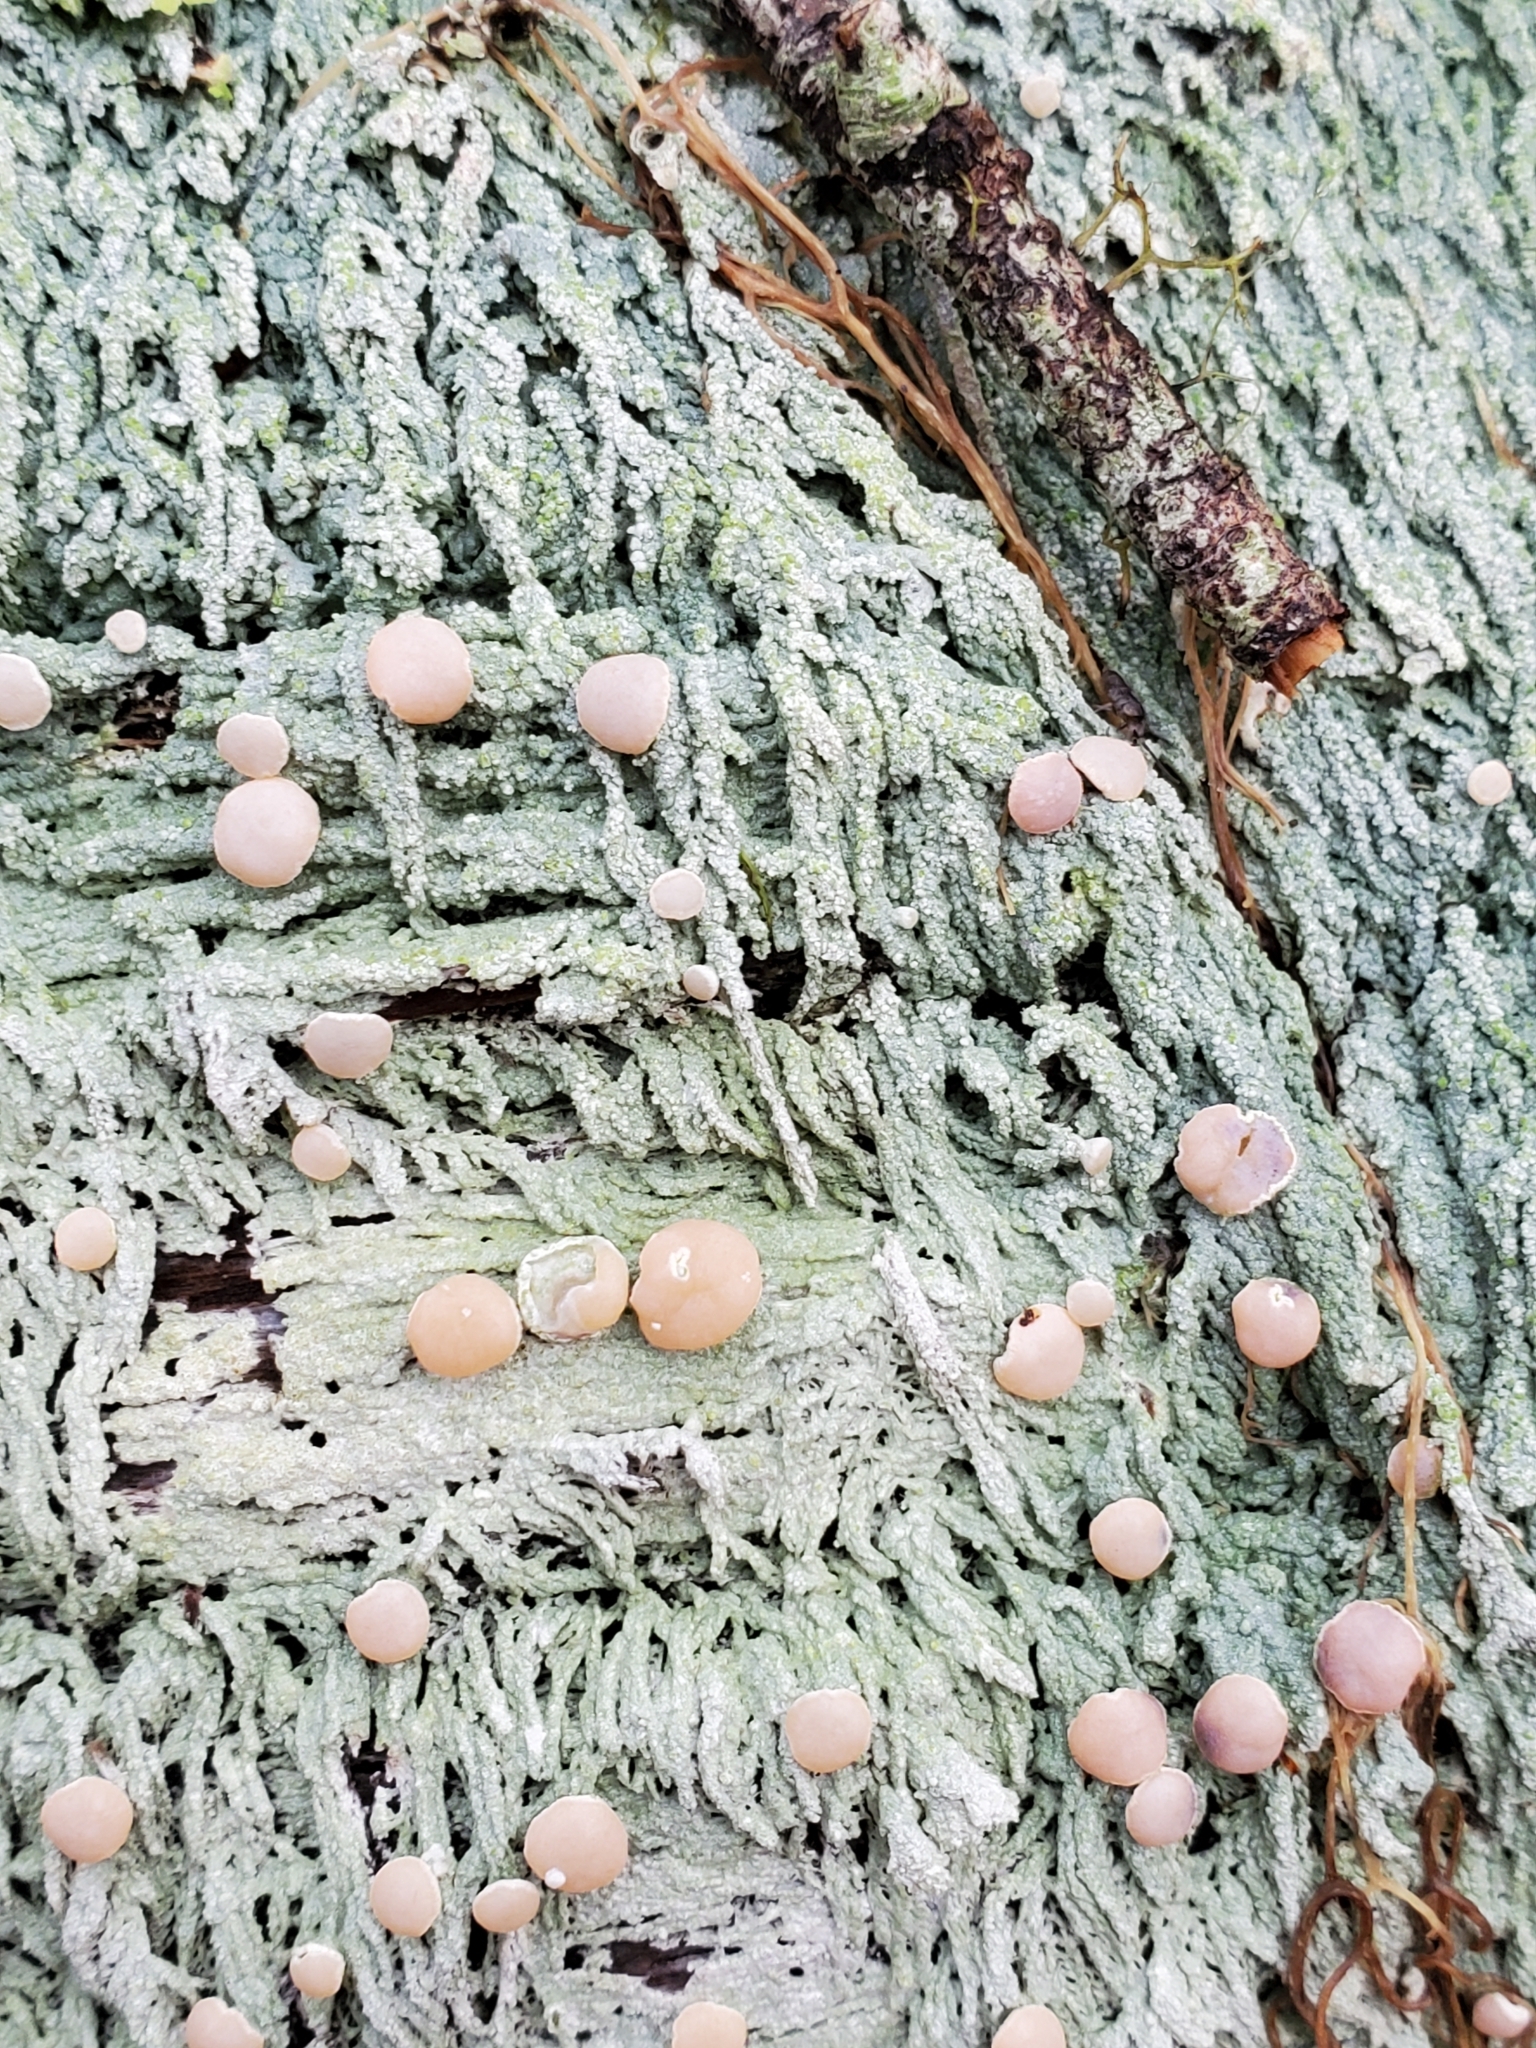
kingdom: Fungi
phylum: Ascomycota
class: Lecanoromycetes
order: Pertusariales
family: Icmadophilaceae
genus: Icmadophila
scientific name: Icmadophila ericetorum
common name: Candy lichen
